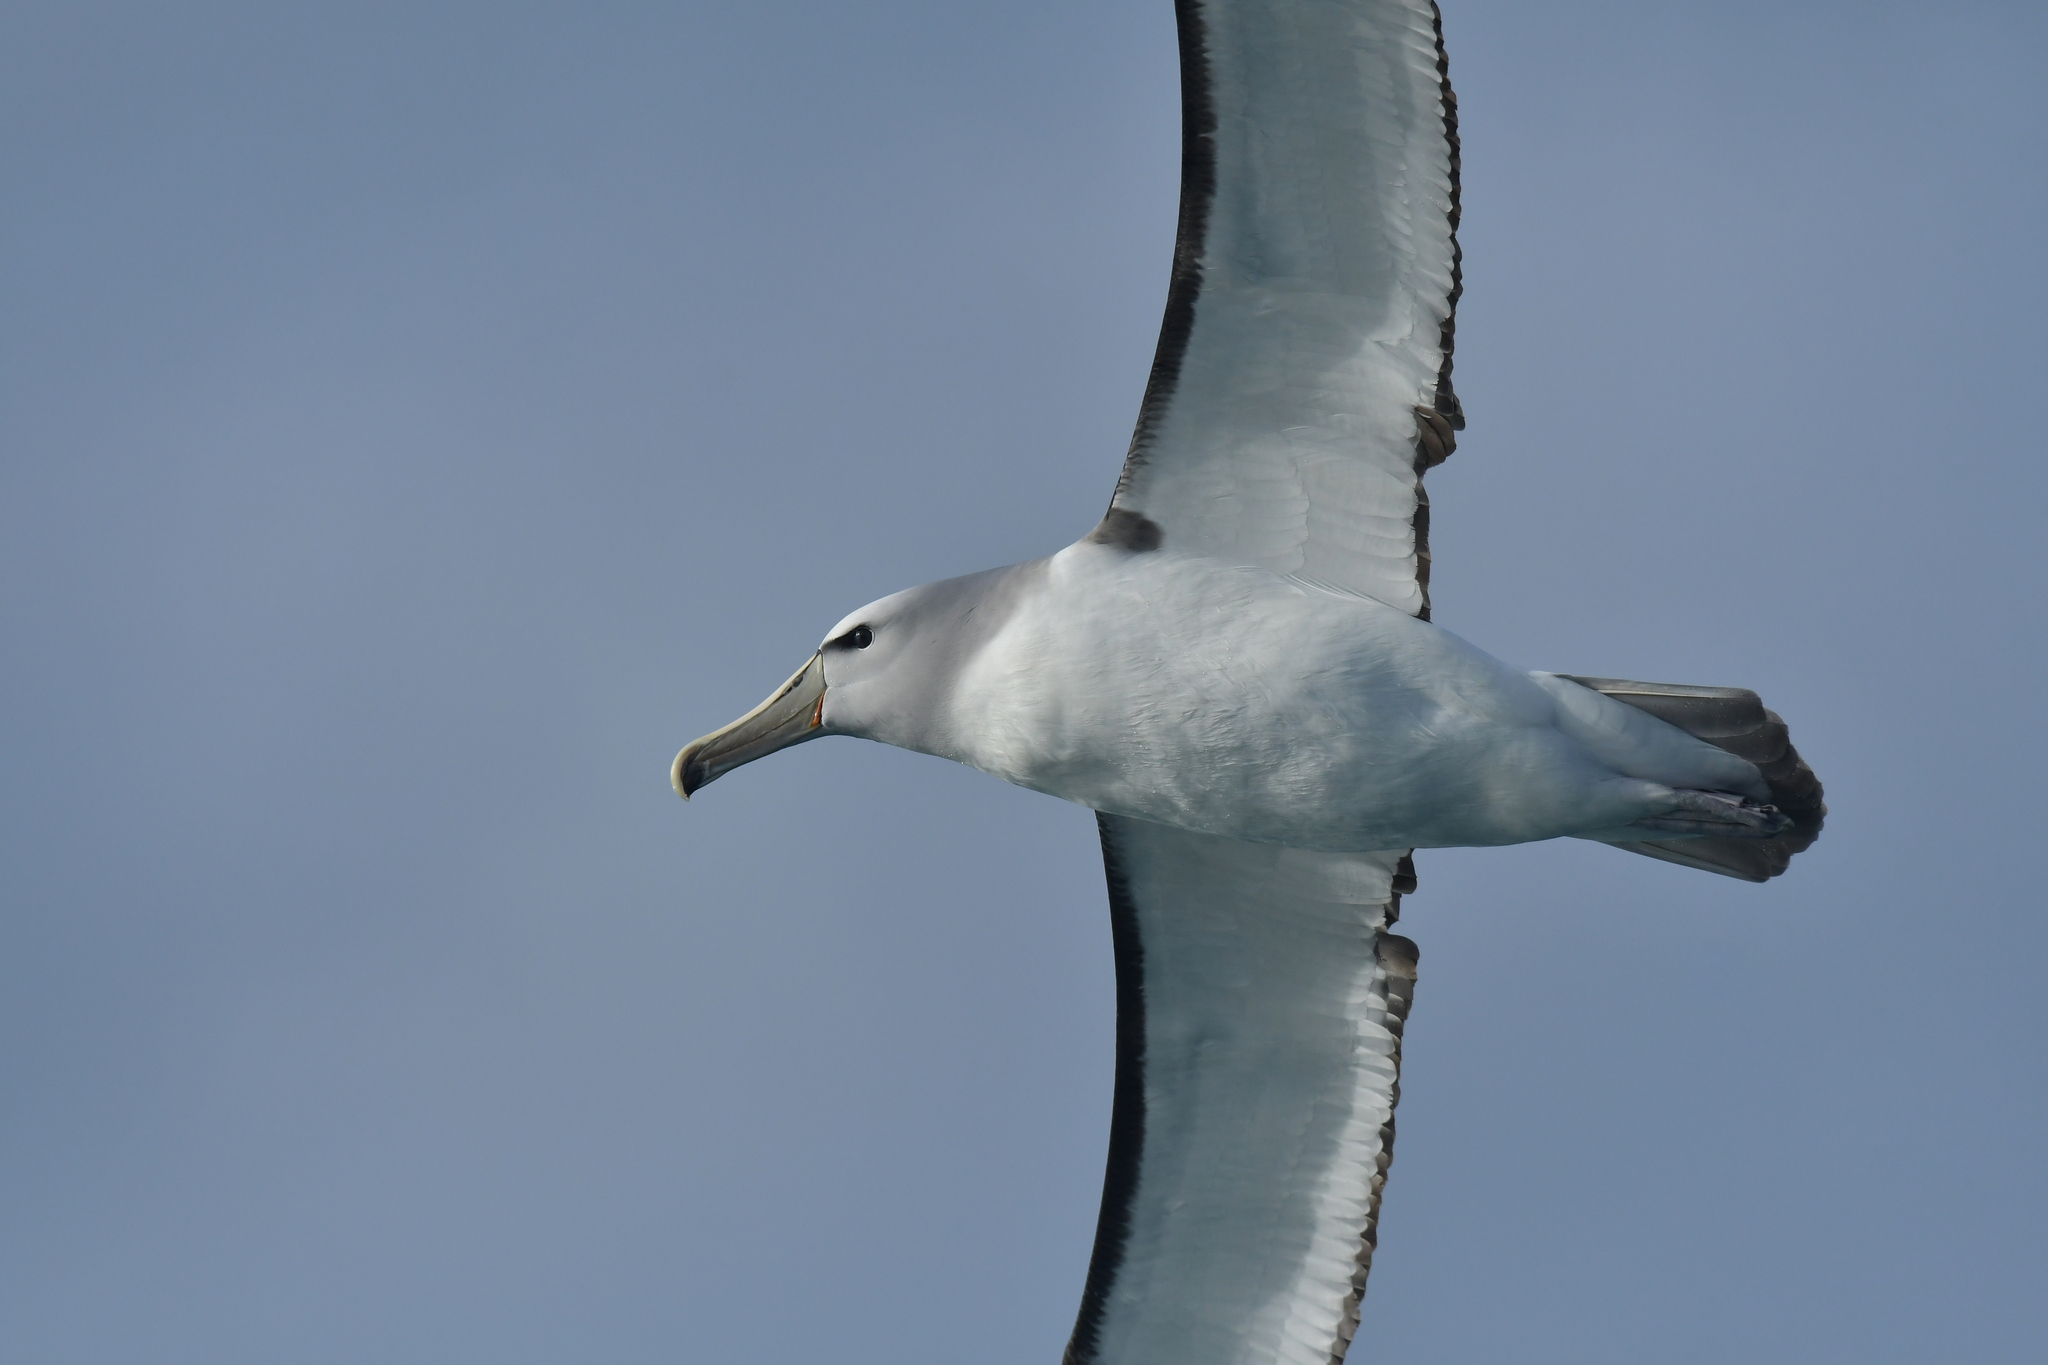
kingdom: Animalia
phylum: Chordata
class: Aves
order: Procellariiformes
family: Diomedeidae
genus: Thalassarche
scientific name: Thalassarche salvini
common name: Salvin's albatross
